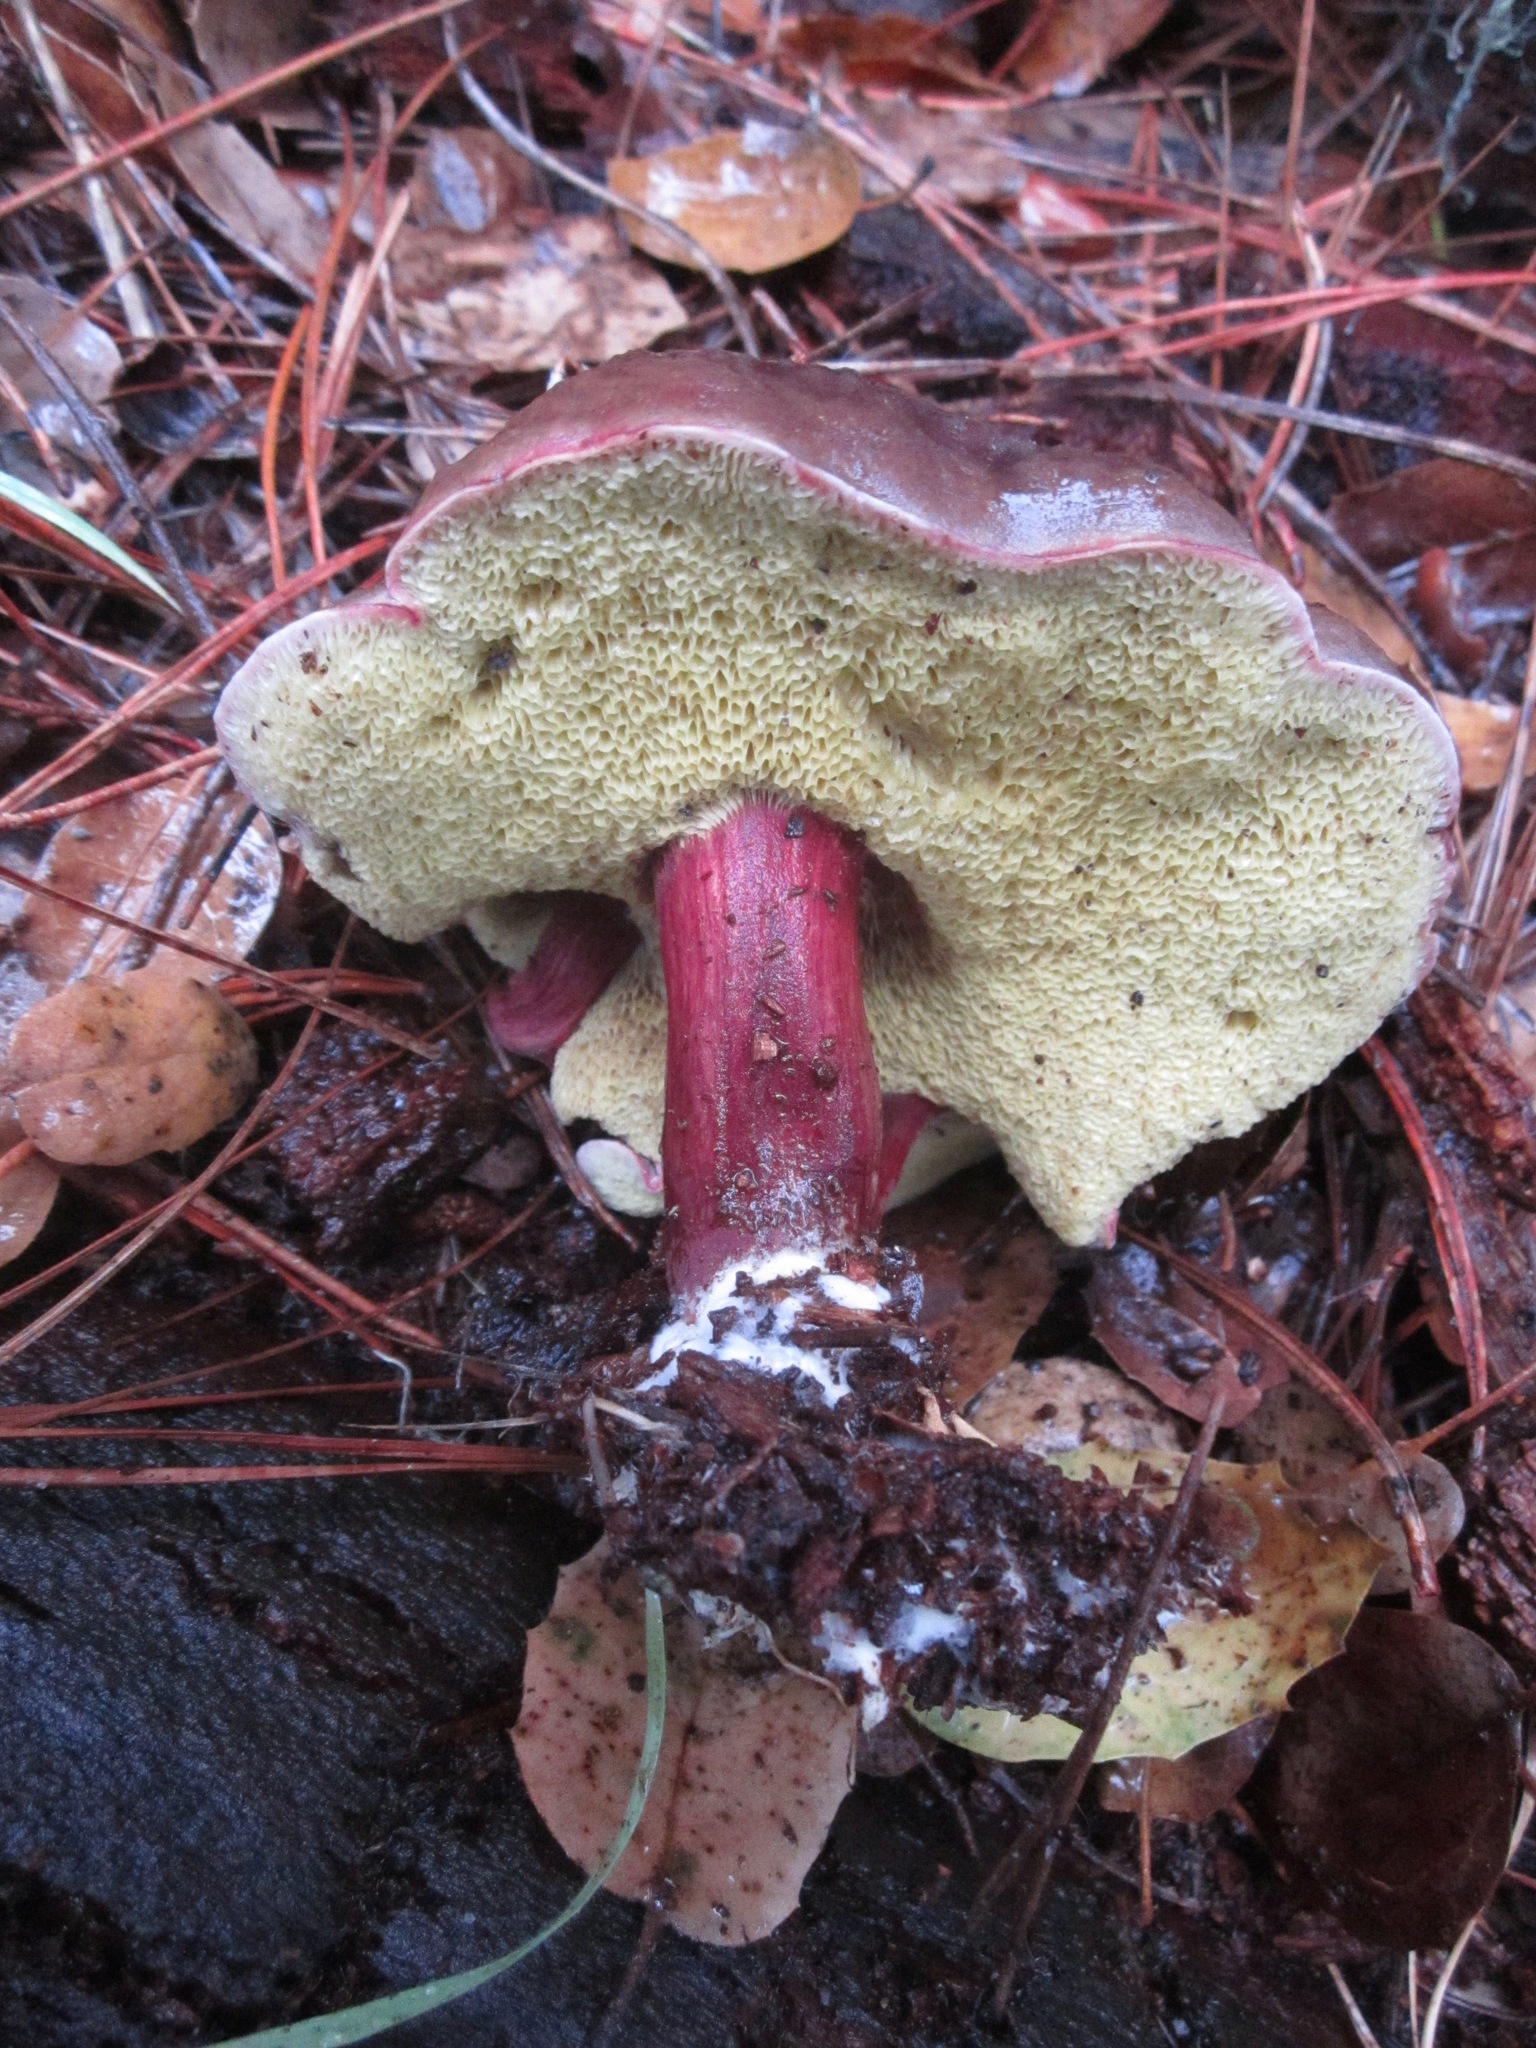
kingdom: Fungi
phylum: Basidiomycota
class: Agaricomycetes
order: Boletales
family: Boletaceae
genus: Xerocomellus
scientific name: Xerocomellus atropurpureus
